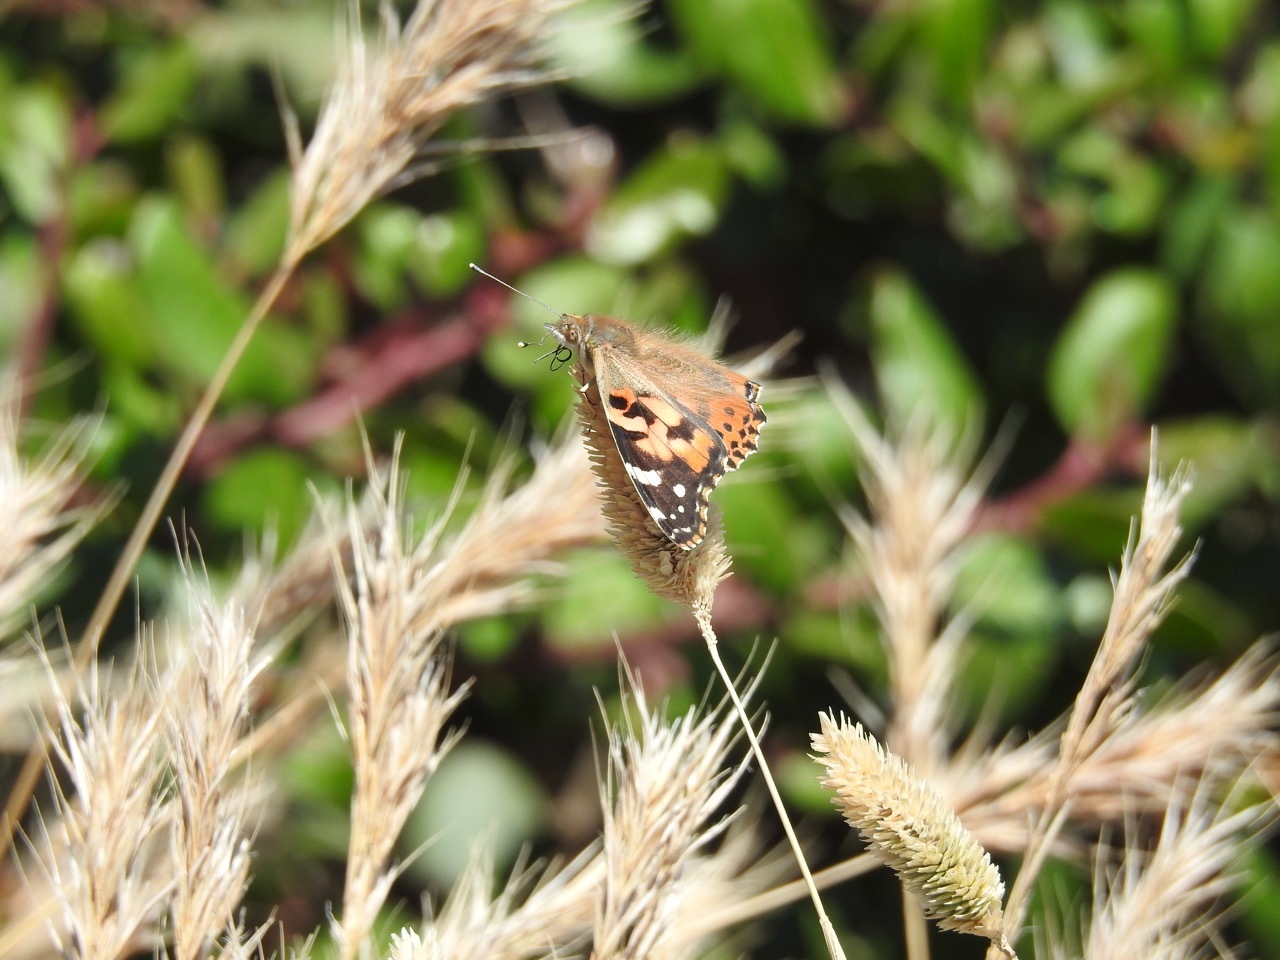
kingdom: Animalia
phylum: Arthropoda
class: Insecta
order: Lepidoptera
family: Nymphalidae
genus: Vanessa
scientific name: Vanessa cardui
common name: Painted lady
